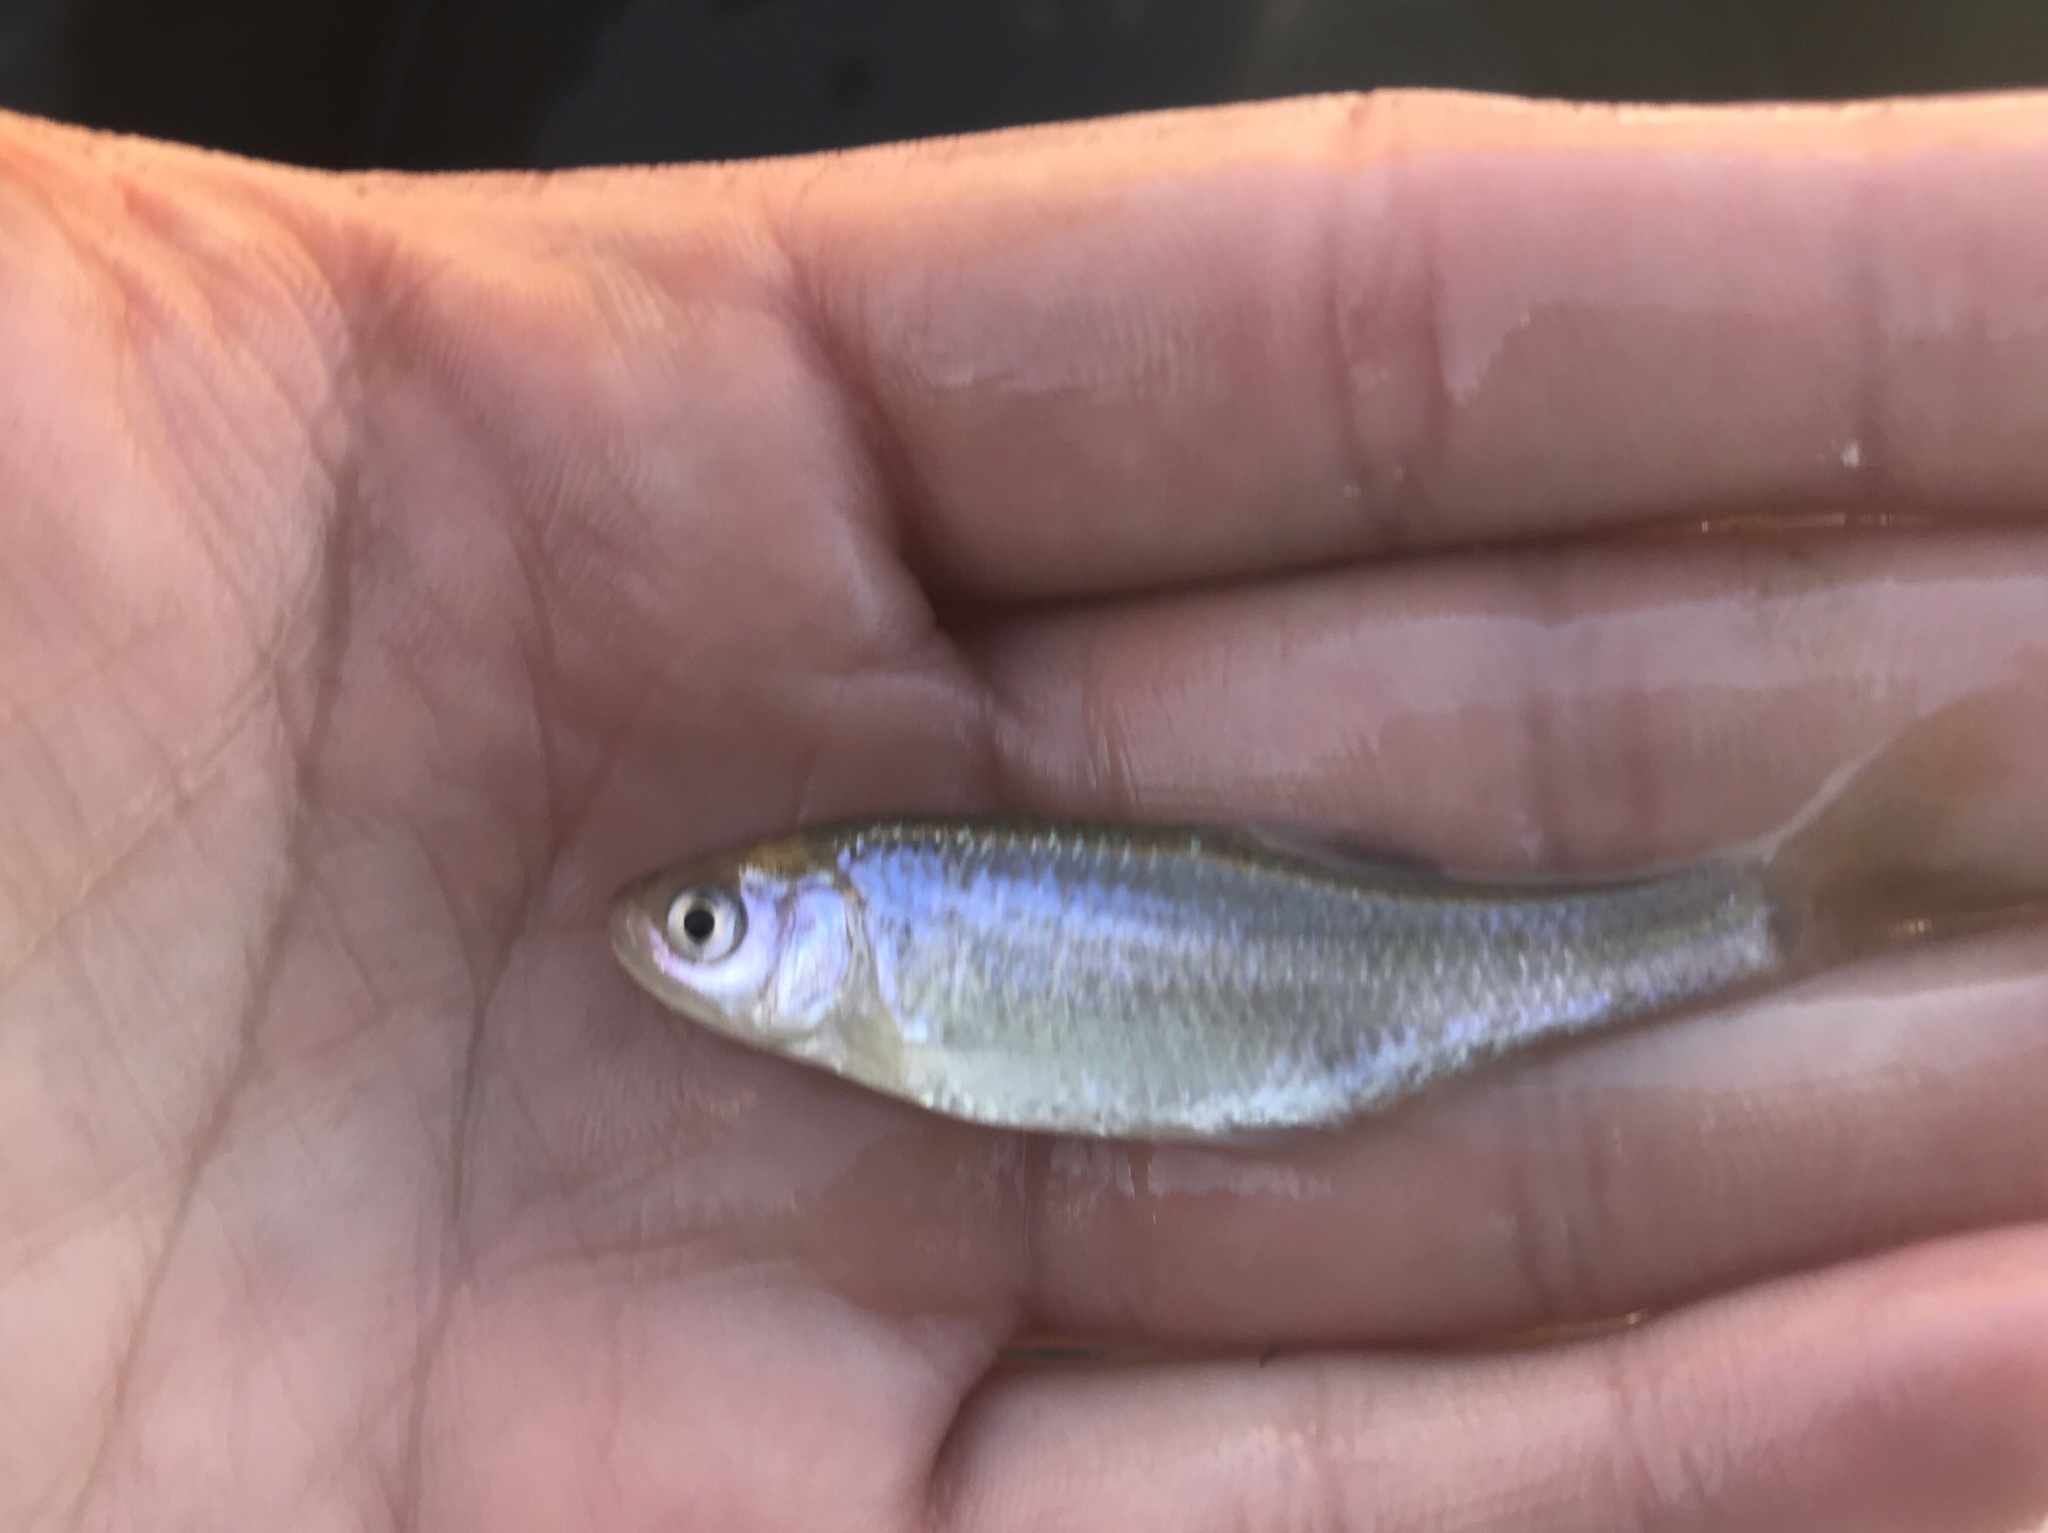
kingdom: Animalia
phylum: Chordata
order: Cypriniformes
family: Cyprinidae
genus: Cyprinella
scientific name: Cyprinella lutrensis
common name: Red shiner
